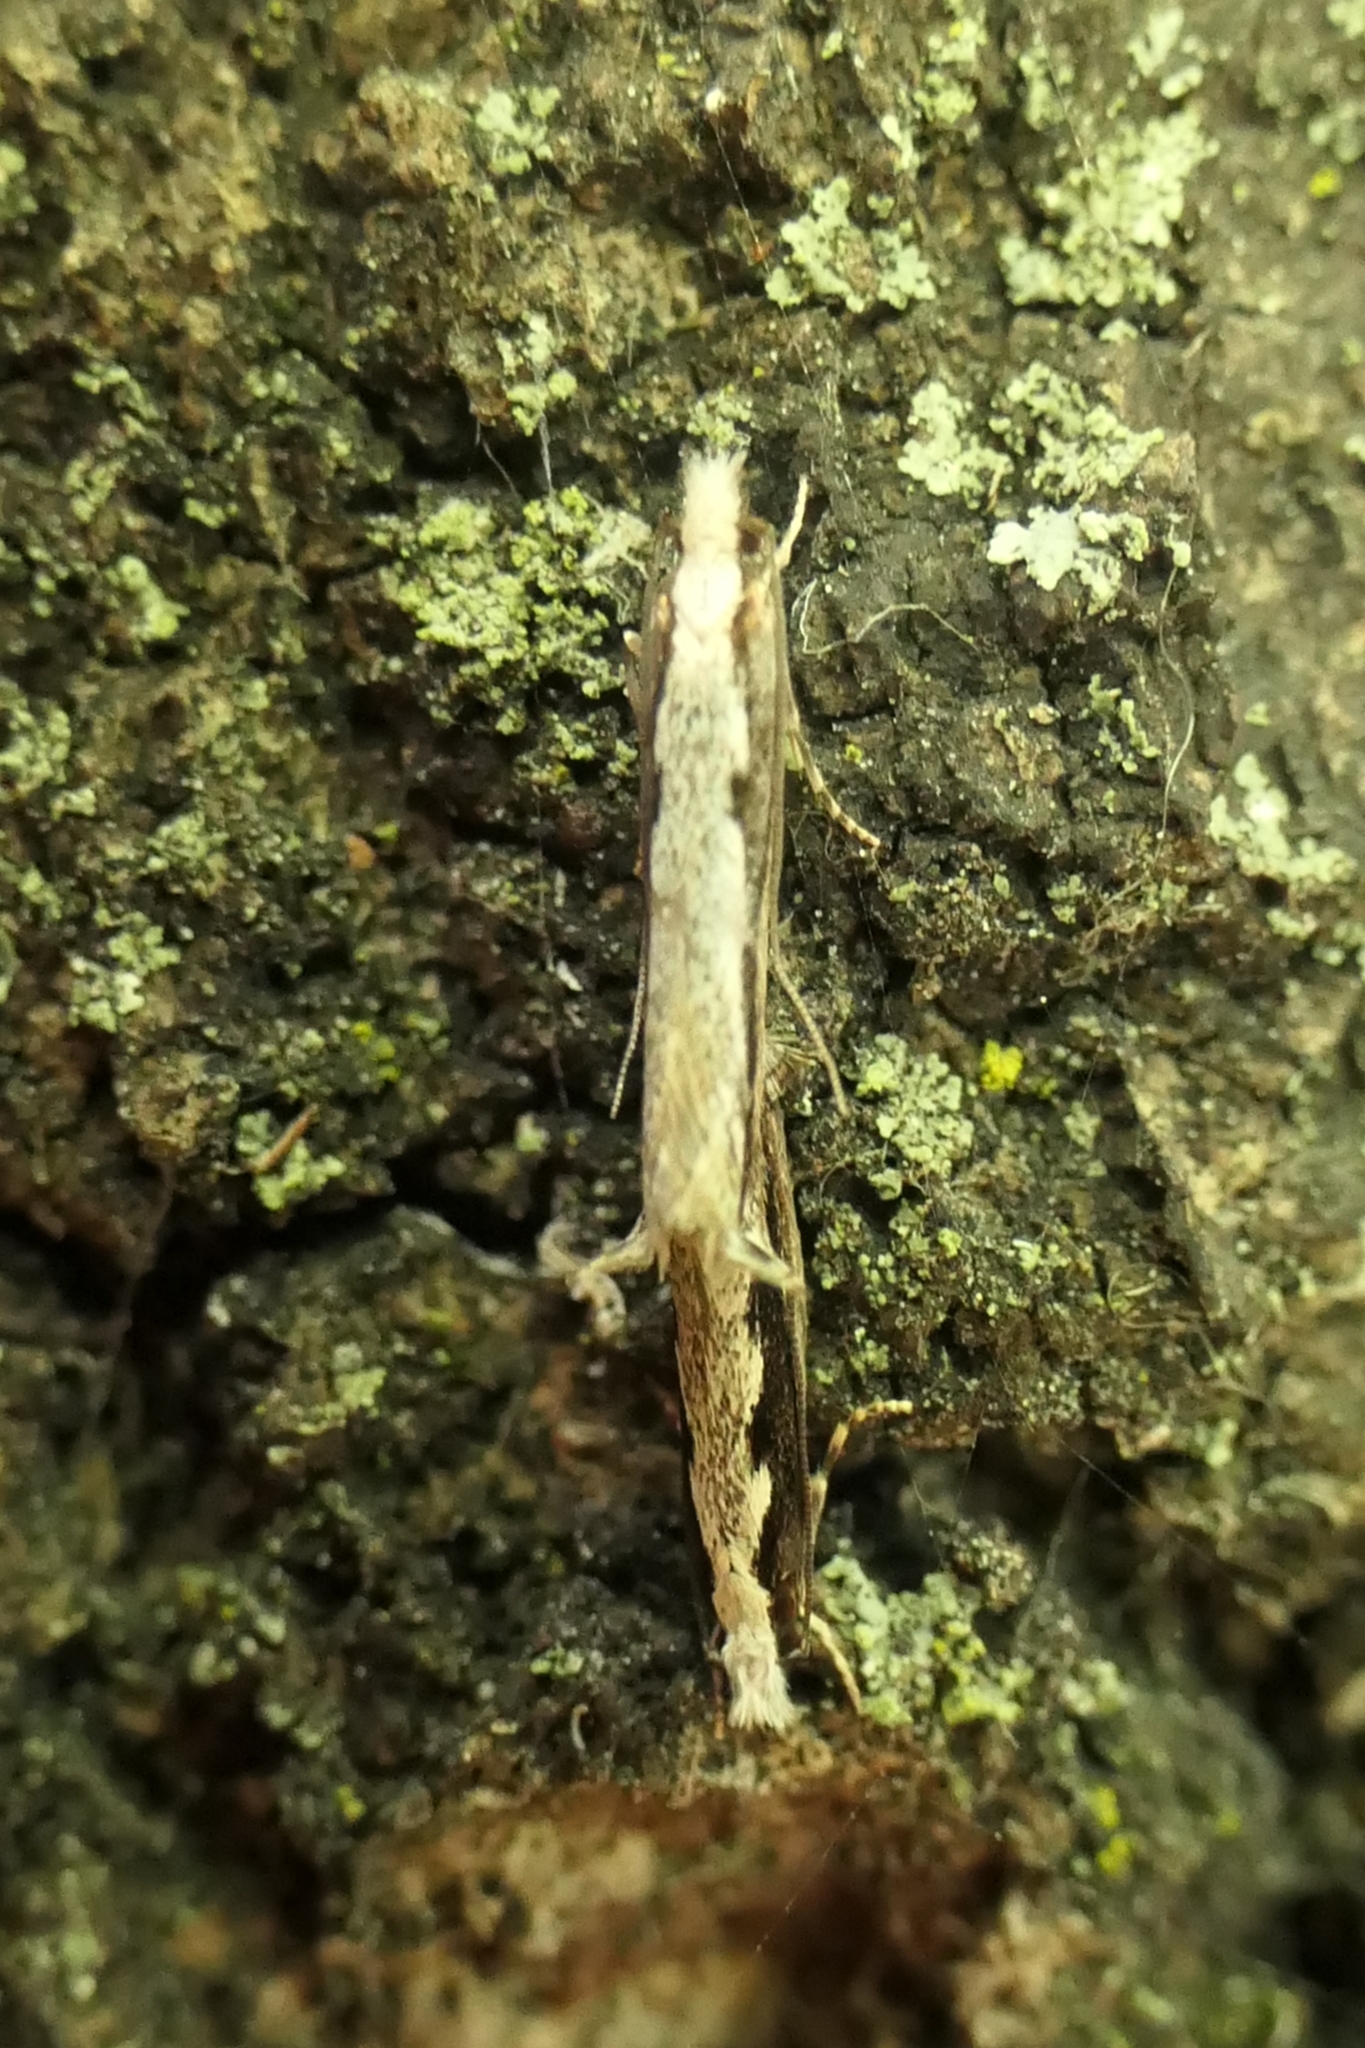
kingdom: Animalia
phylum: Arthropoda
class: Insecta
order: Lepidoptera
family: Tineidae
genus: Erechthias
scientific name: Erechthias fulguritella
